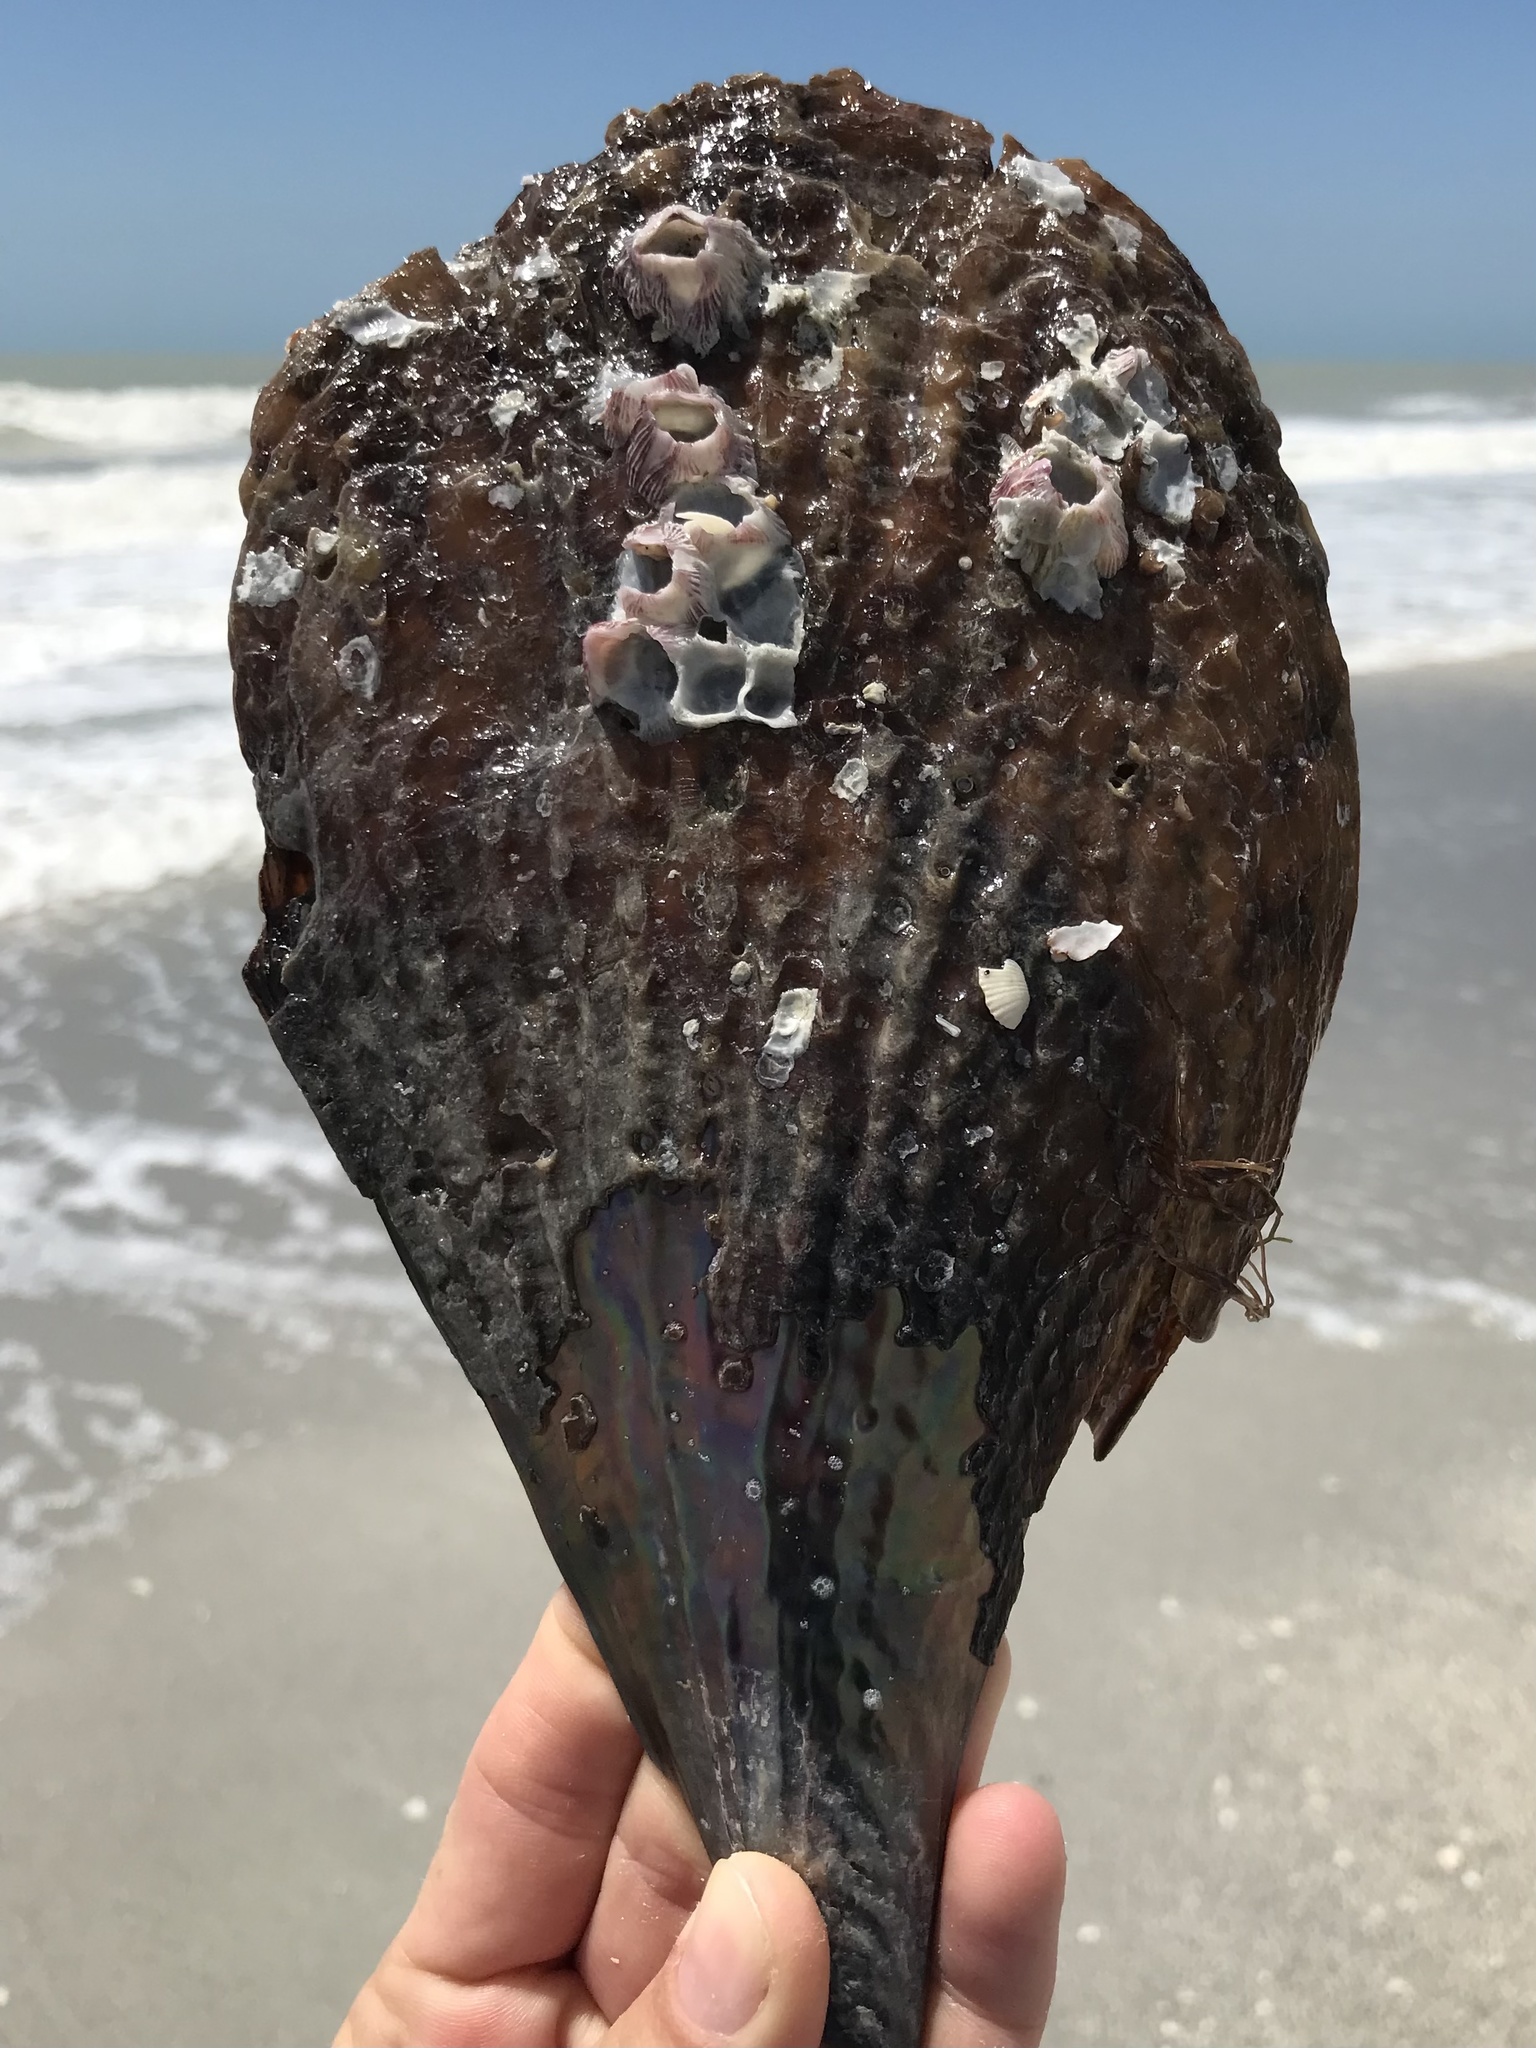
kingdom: Animalia
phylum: Mollusca
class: Bivalvia
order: Ostreida
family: Pinnidae
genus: Atrina
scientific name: Atrina rigida
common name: Stiff penshell
